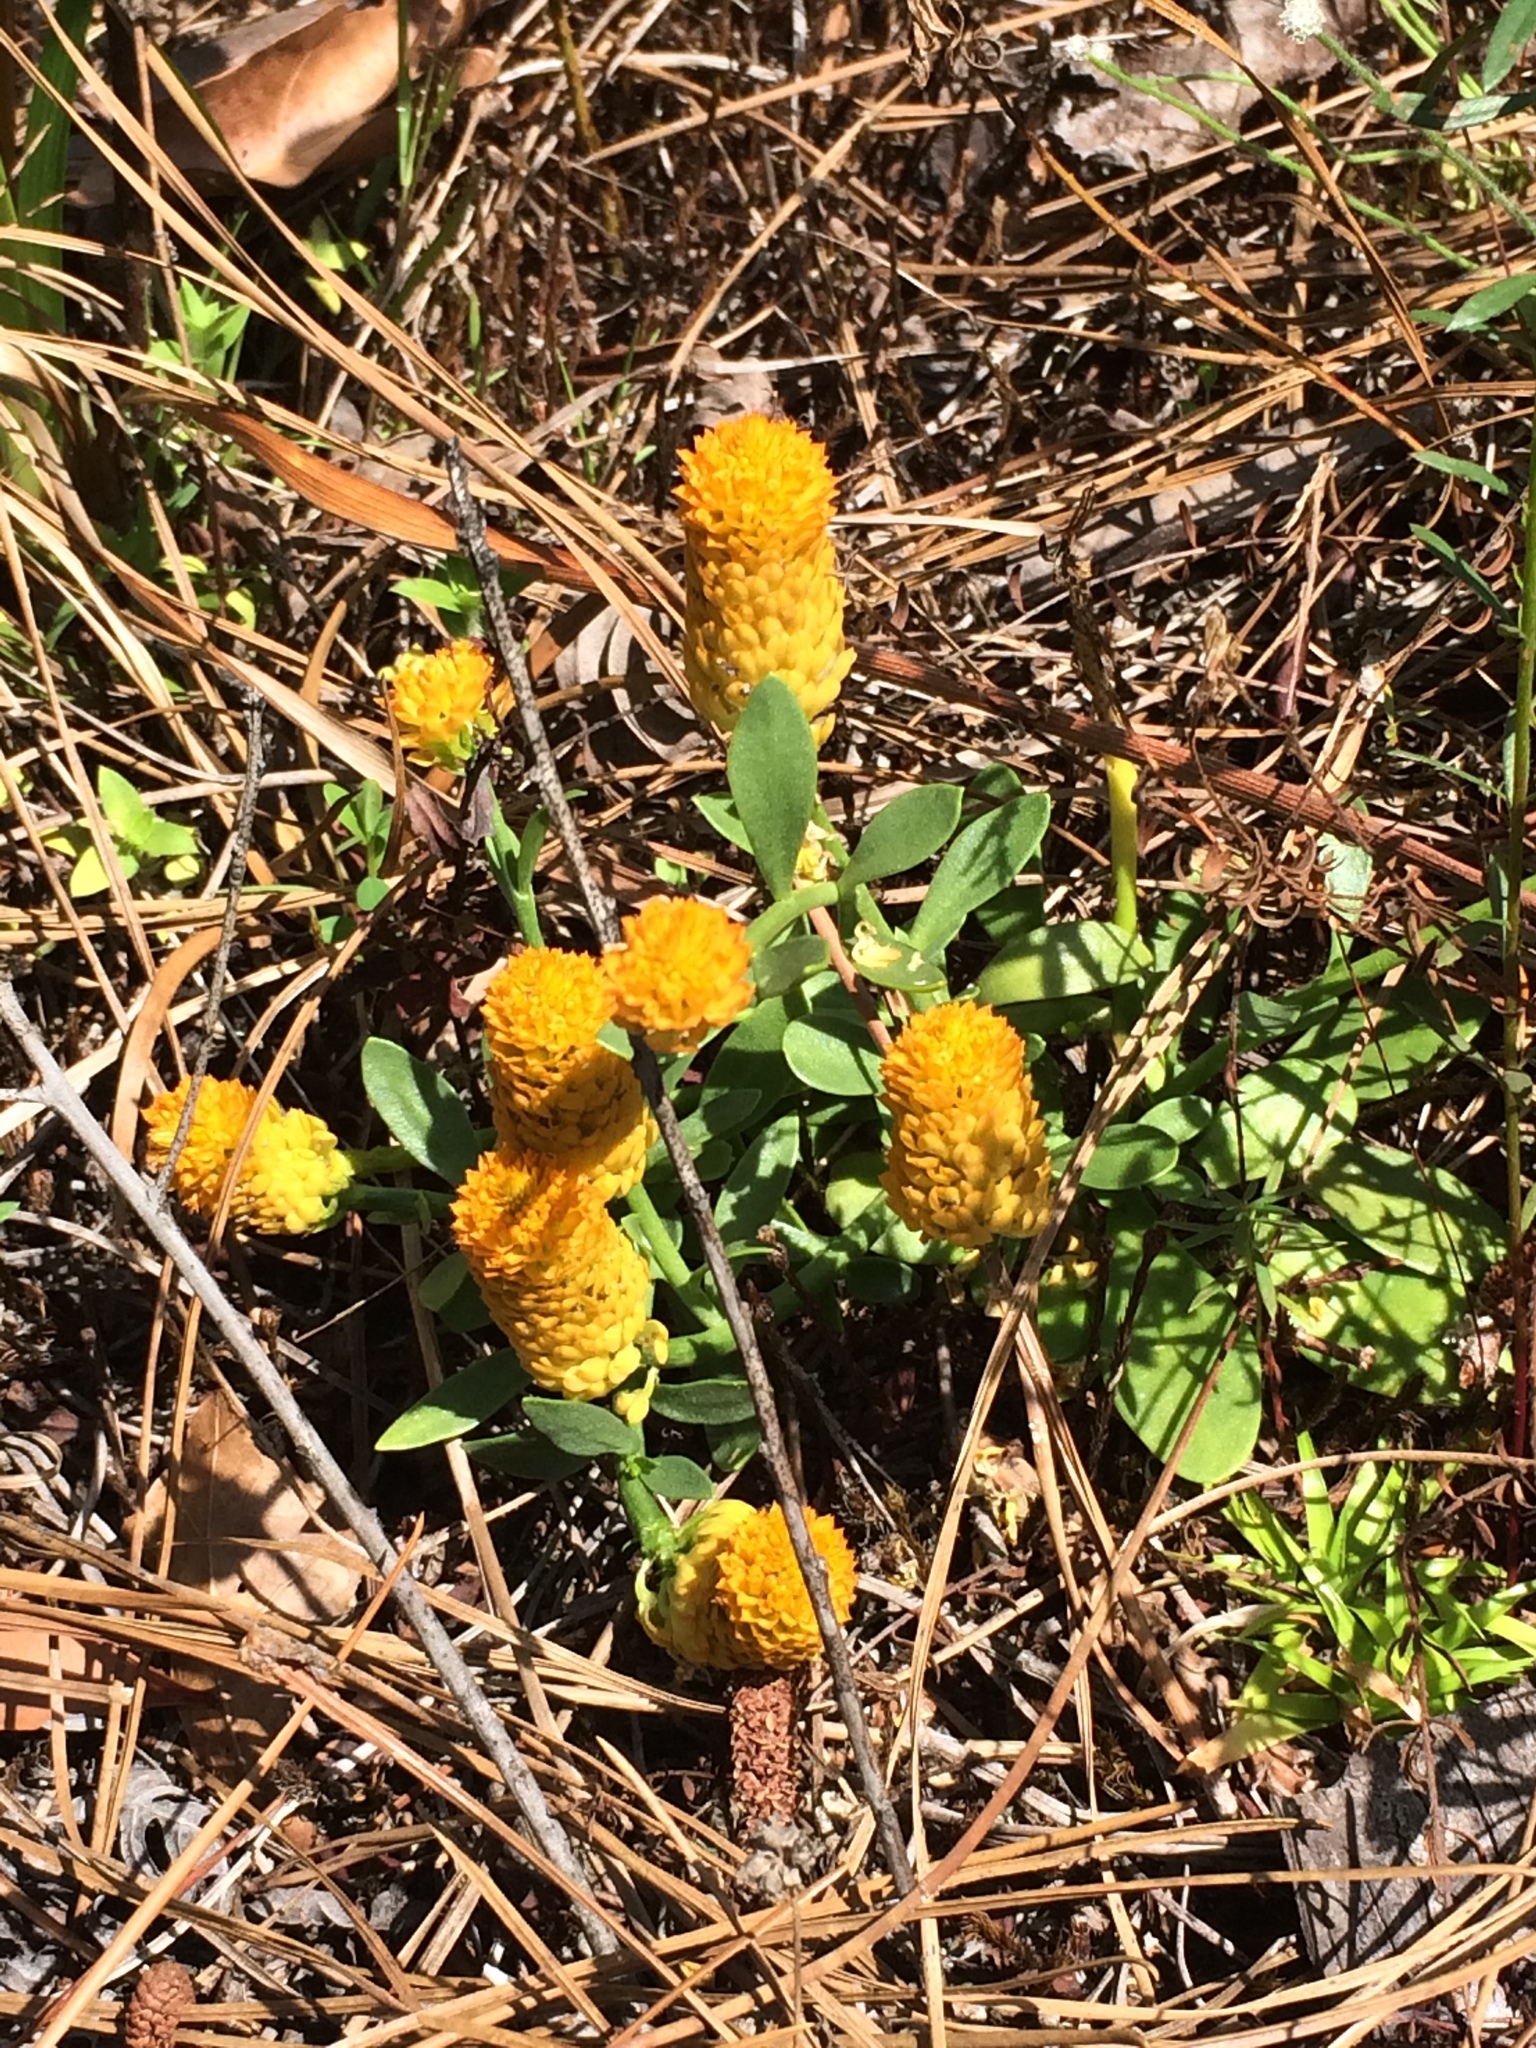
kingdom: Plantae
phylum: Tracheophyta
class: Magnoliopsida
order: Fabales
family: Polygalaceae
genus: Polygala
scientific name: Polygala lutea
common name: Orange milkwort
